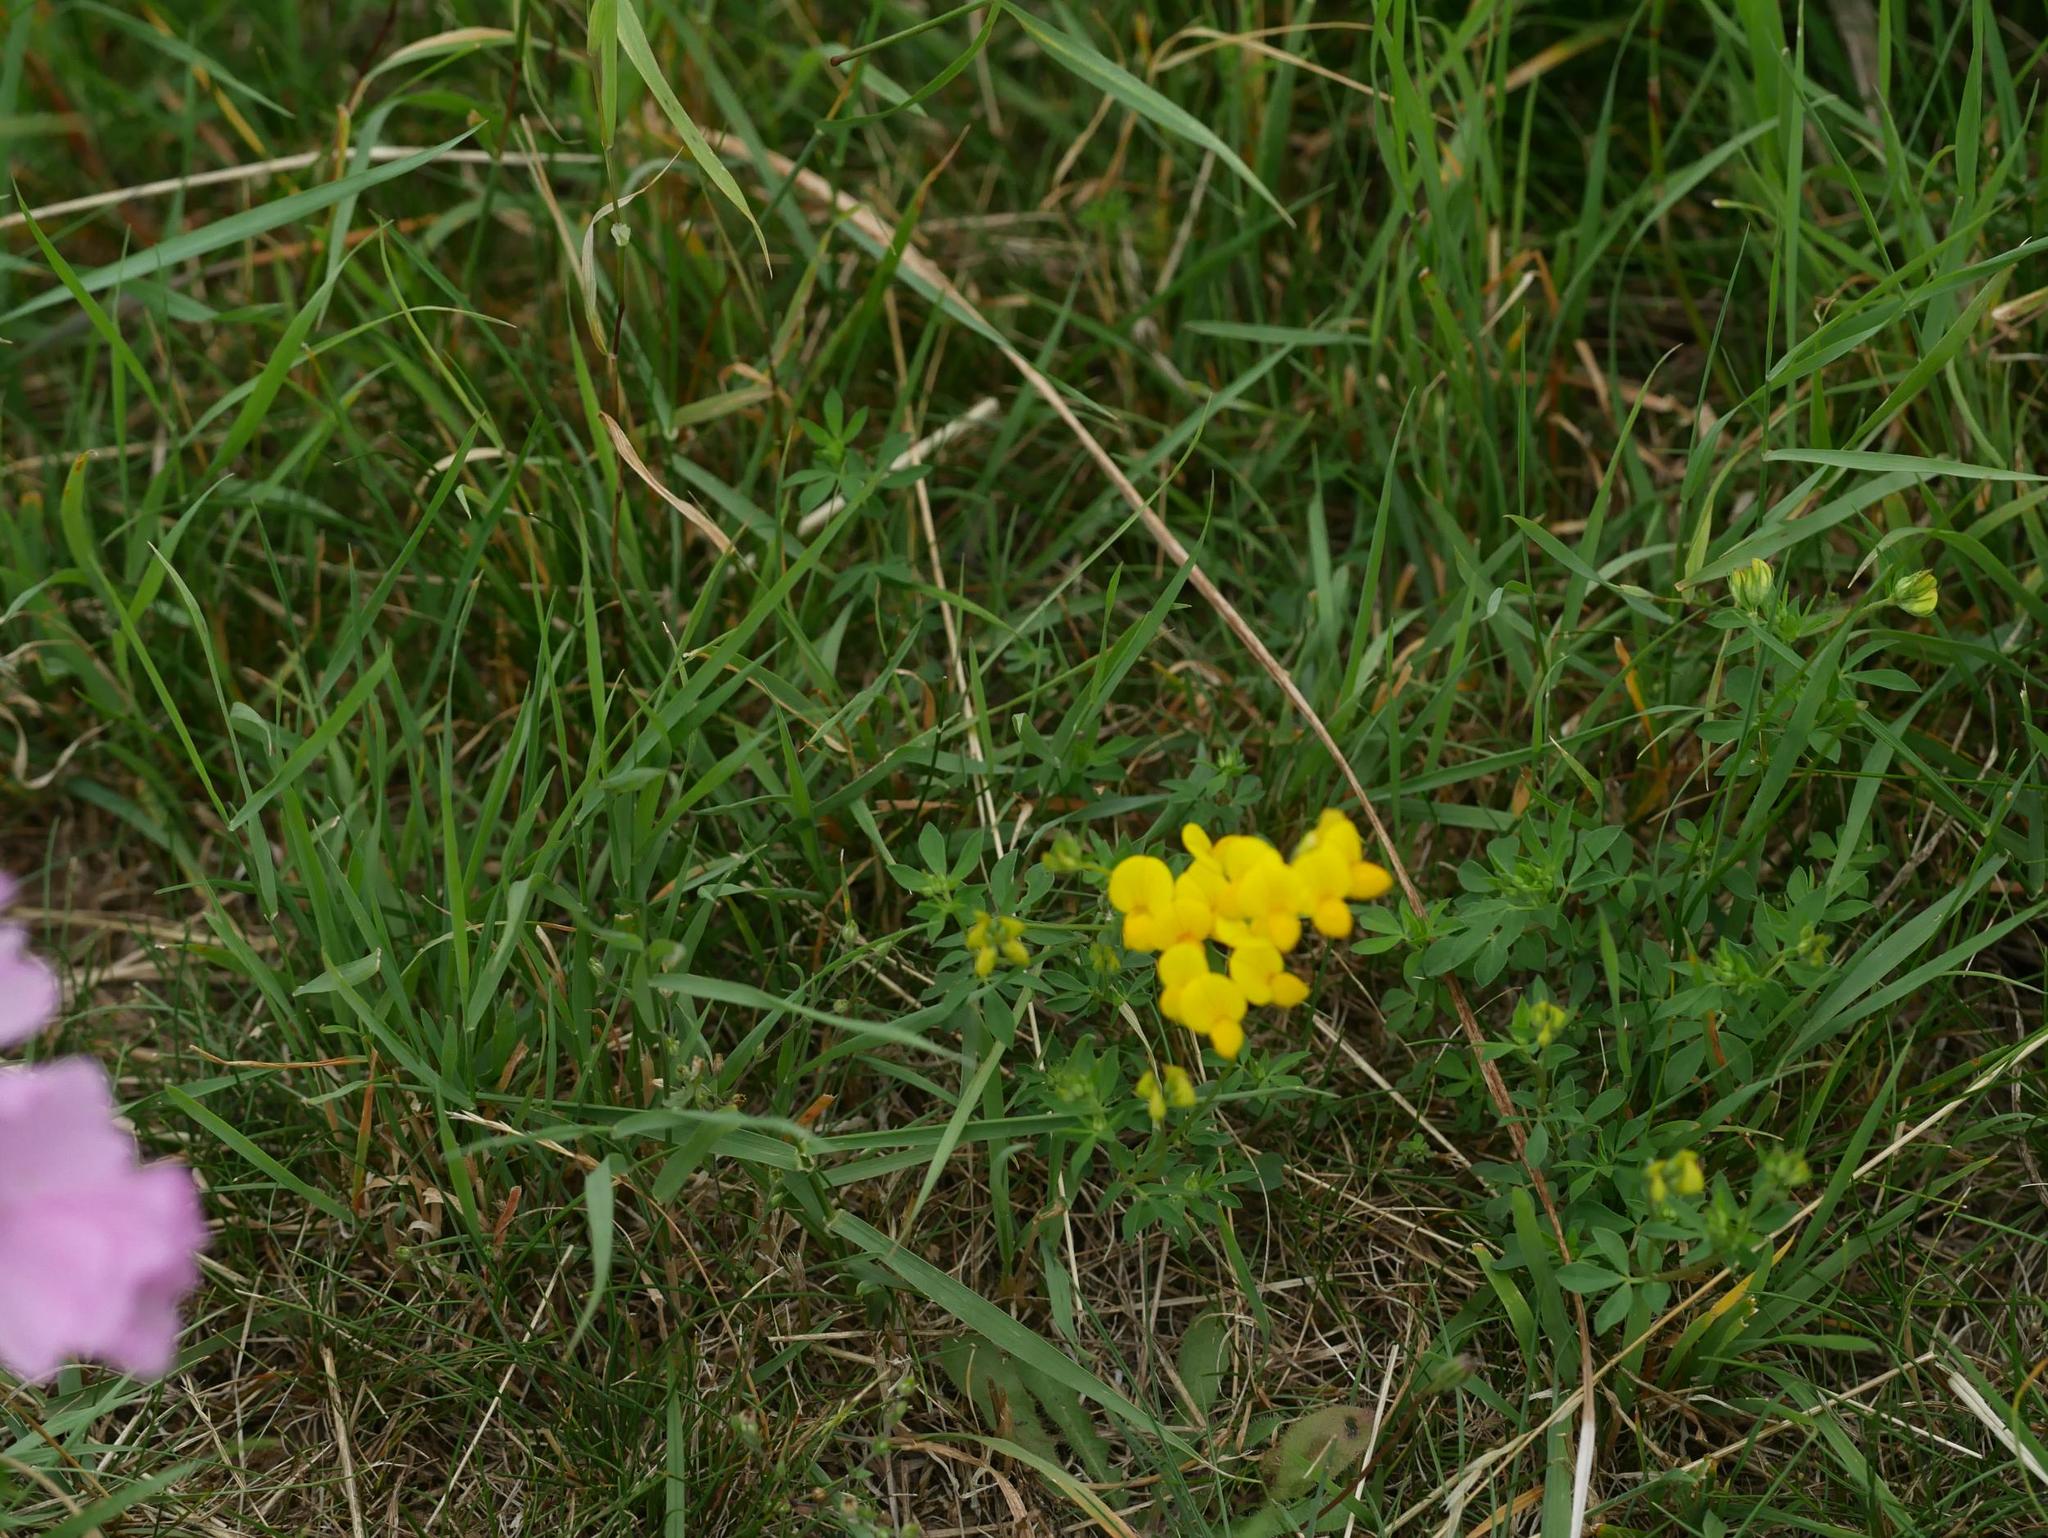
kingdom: Plantae
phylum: Tracheophyta
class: Magnoliopsida
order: Fabales
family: Fabaceae
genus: Lotus
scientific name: Lotus corniculatus
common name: Common bird's-foot-trefoil
